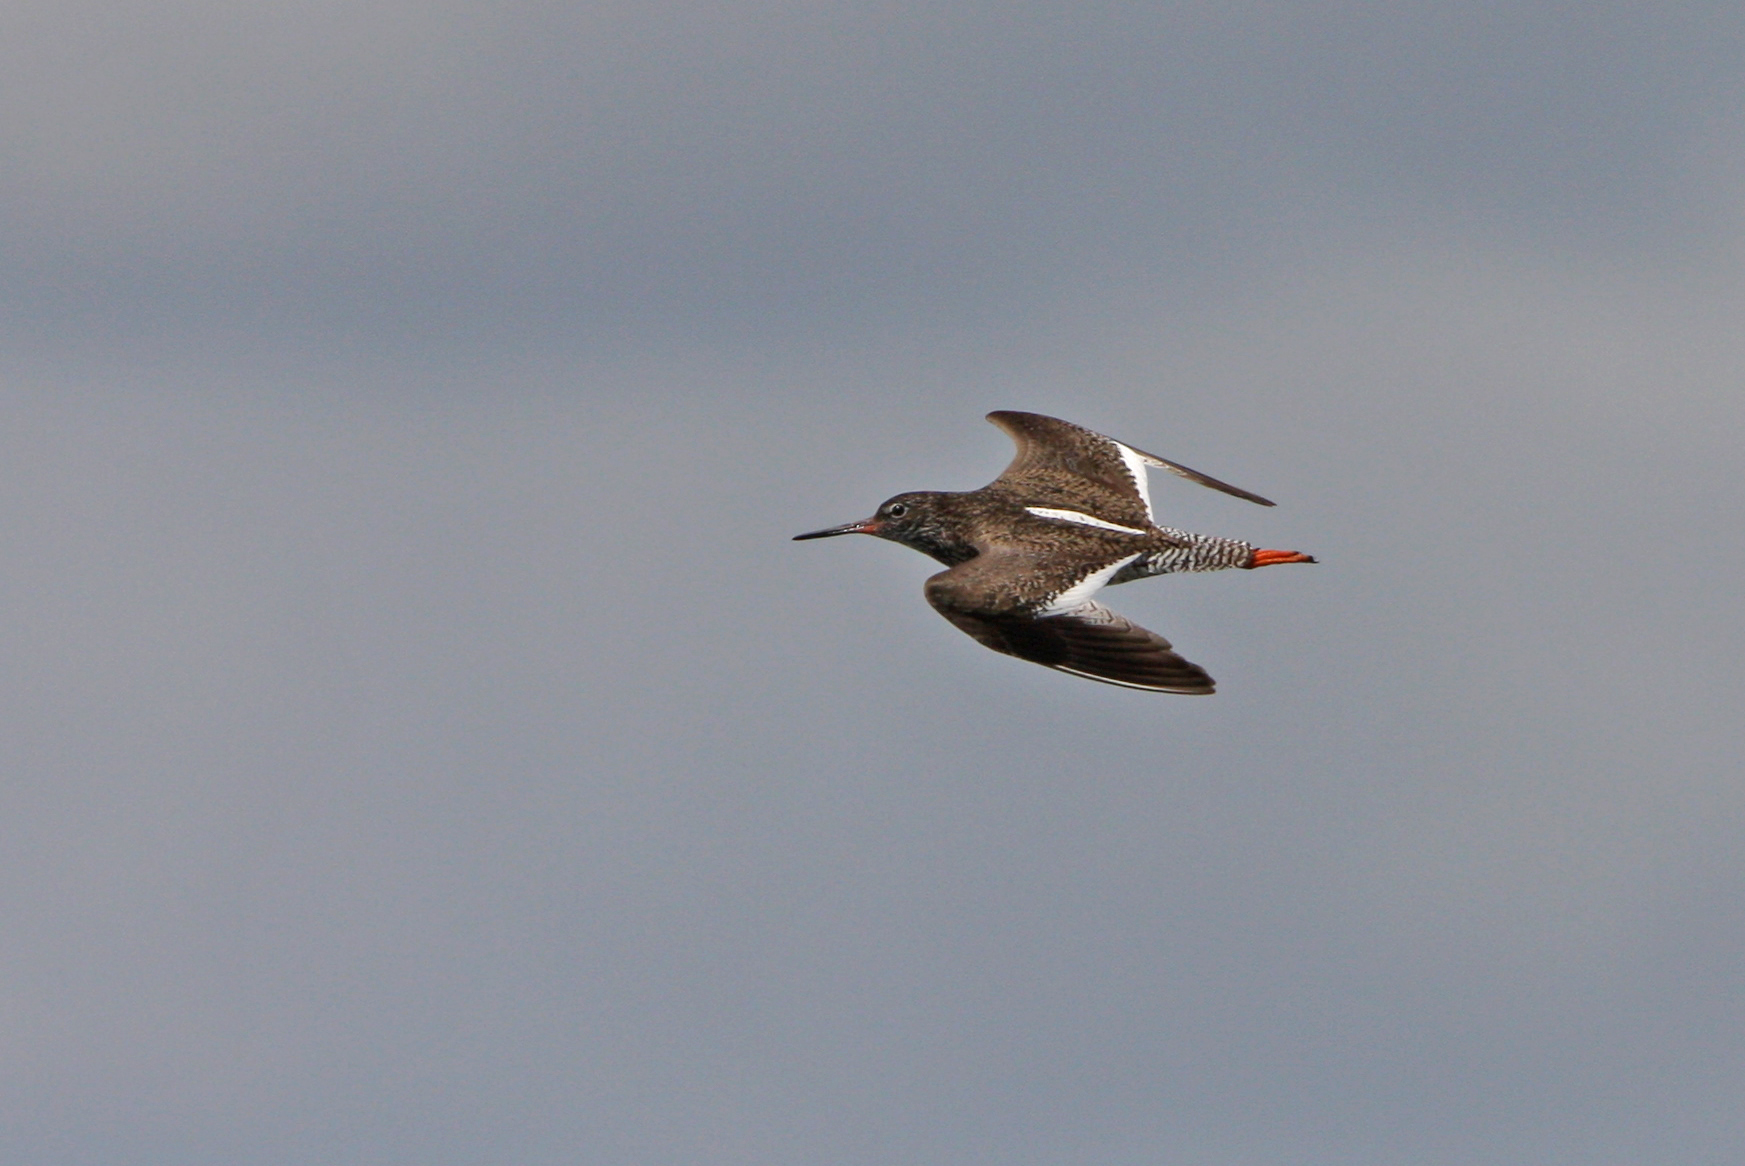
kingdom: Animalia
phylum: Chordata
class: Aves
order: Charadriiformes
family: Scolopacidae
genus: Tringa
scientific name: Tringa totanus
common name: Common redshank
